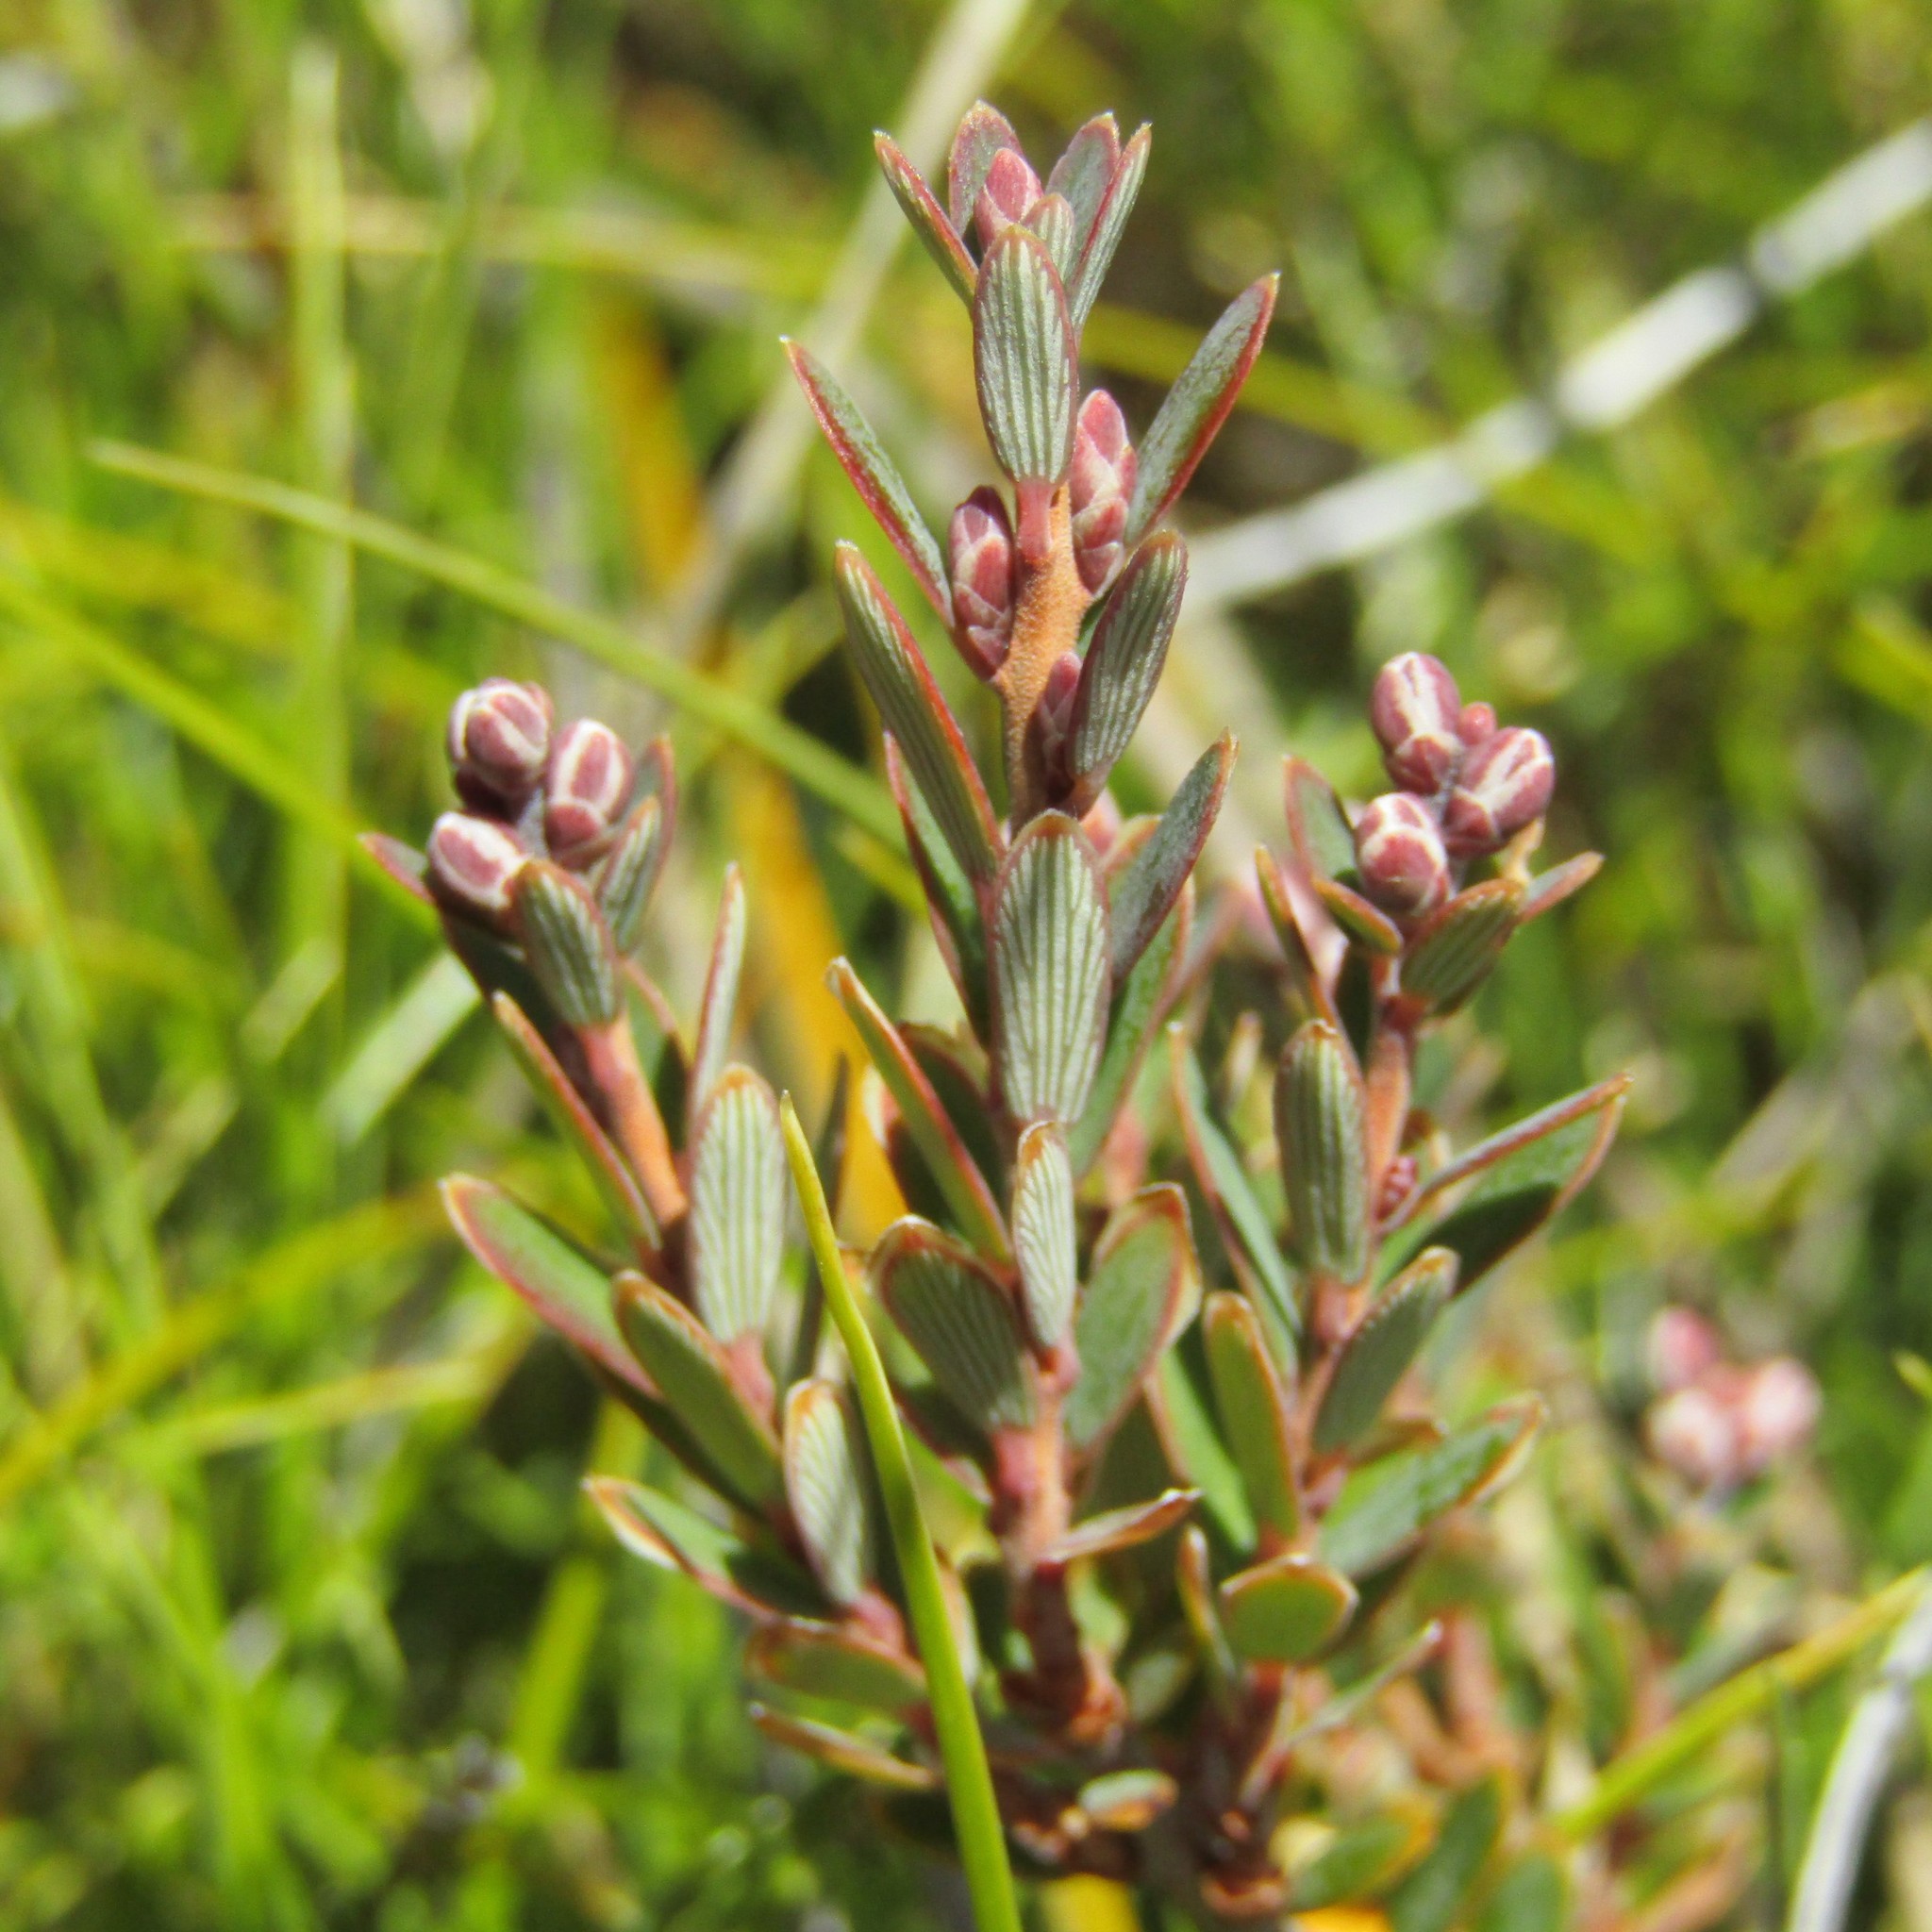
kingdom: Plantae
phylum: Tracheophyta
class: Magnoliopsida
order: Ericales
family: Ericaceae
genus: Acrothamnus
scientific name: Acrothamnus colensoi
